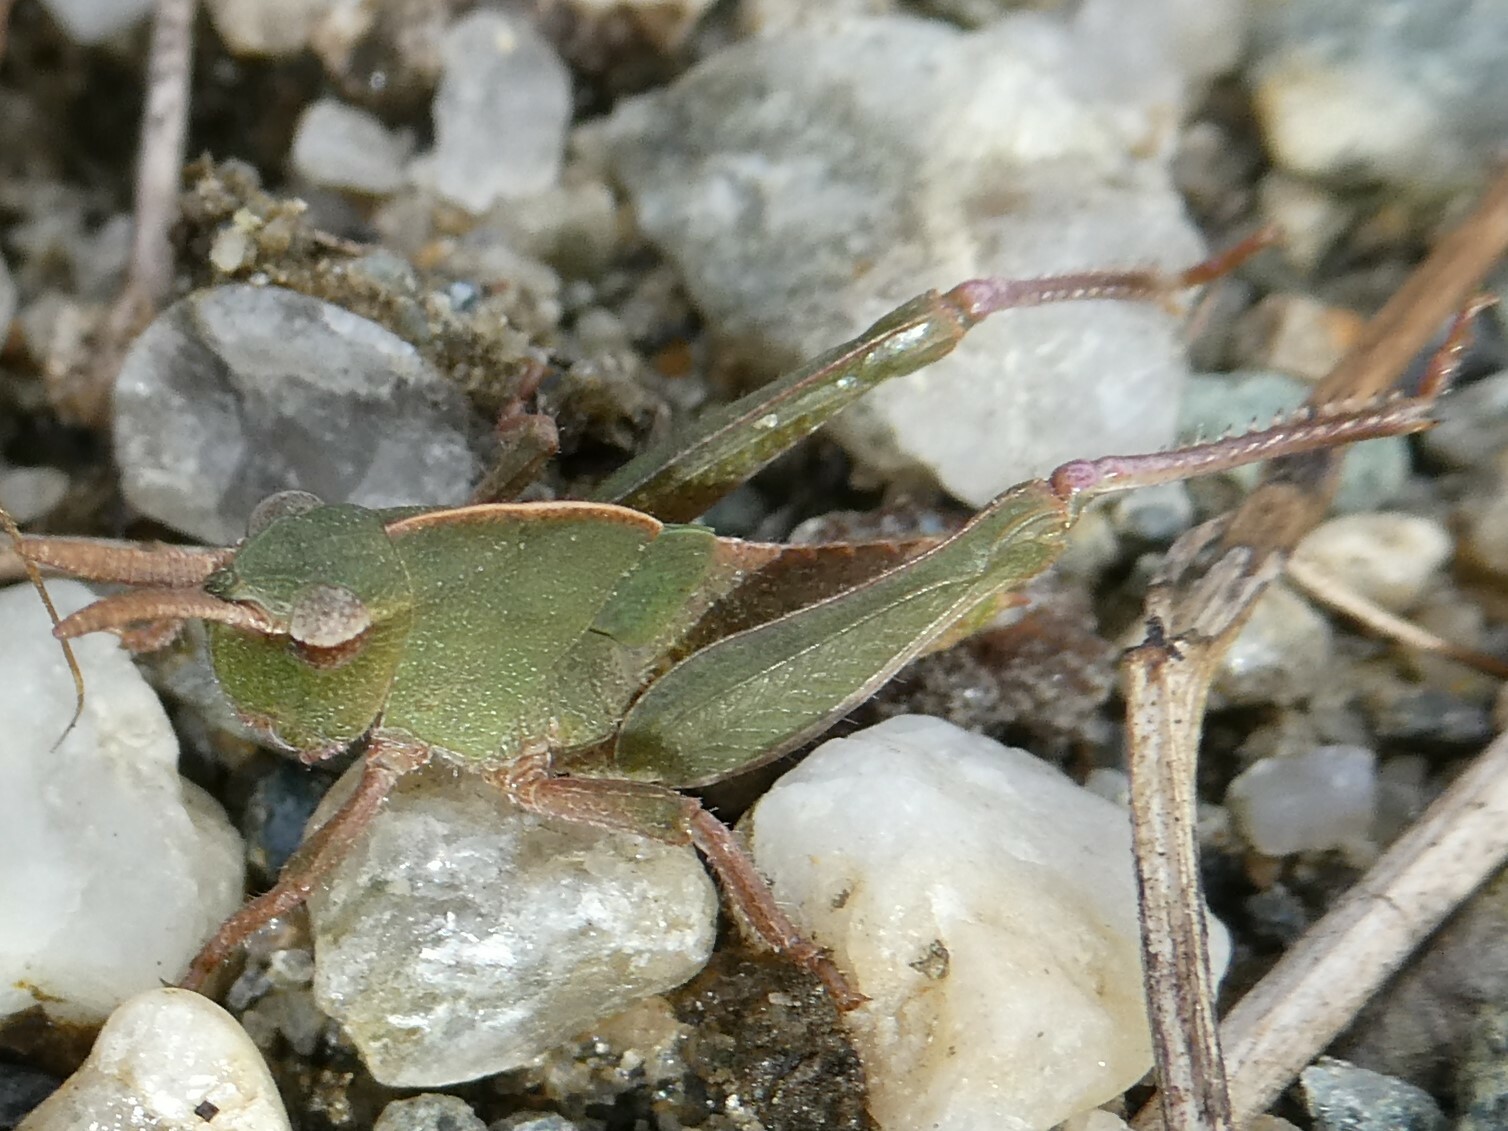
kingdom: Animalia
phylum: Arthropoda
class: Insecta
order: Orthoptera
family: Acrididae
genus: Chortophaga
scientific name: Chortophaga viridifasciata
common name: Green-striped grasshopper
